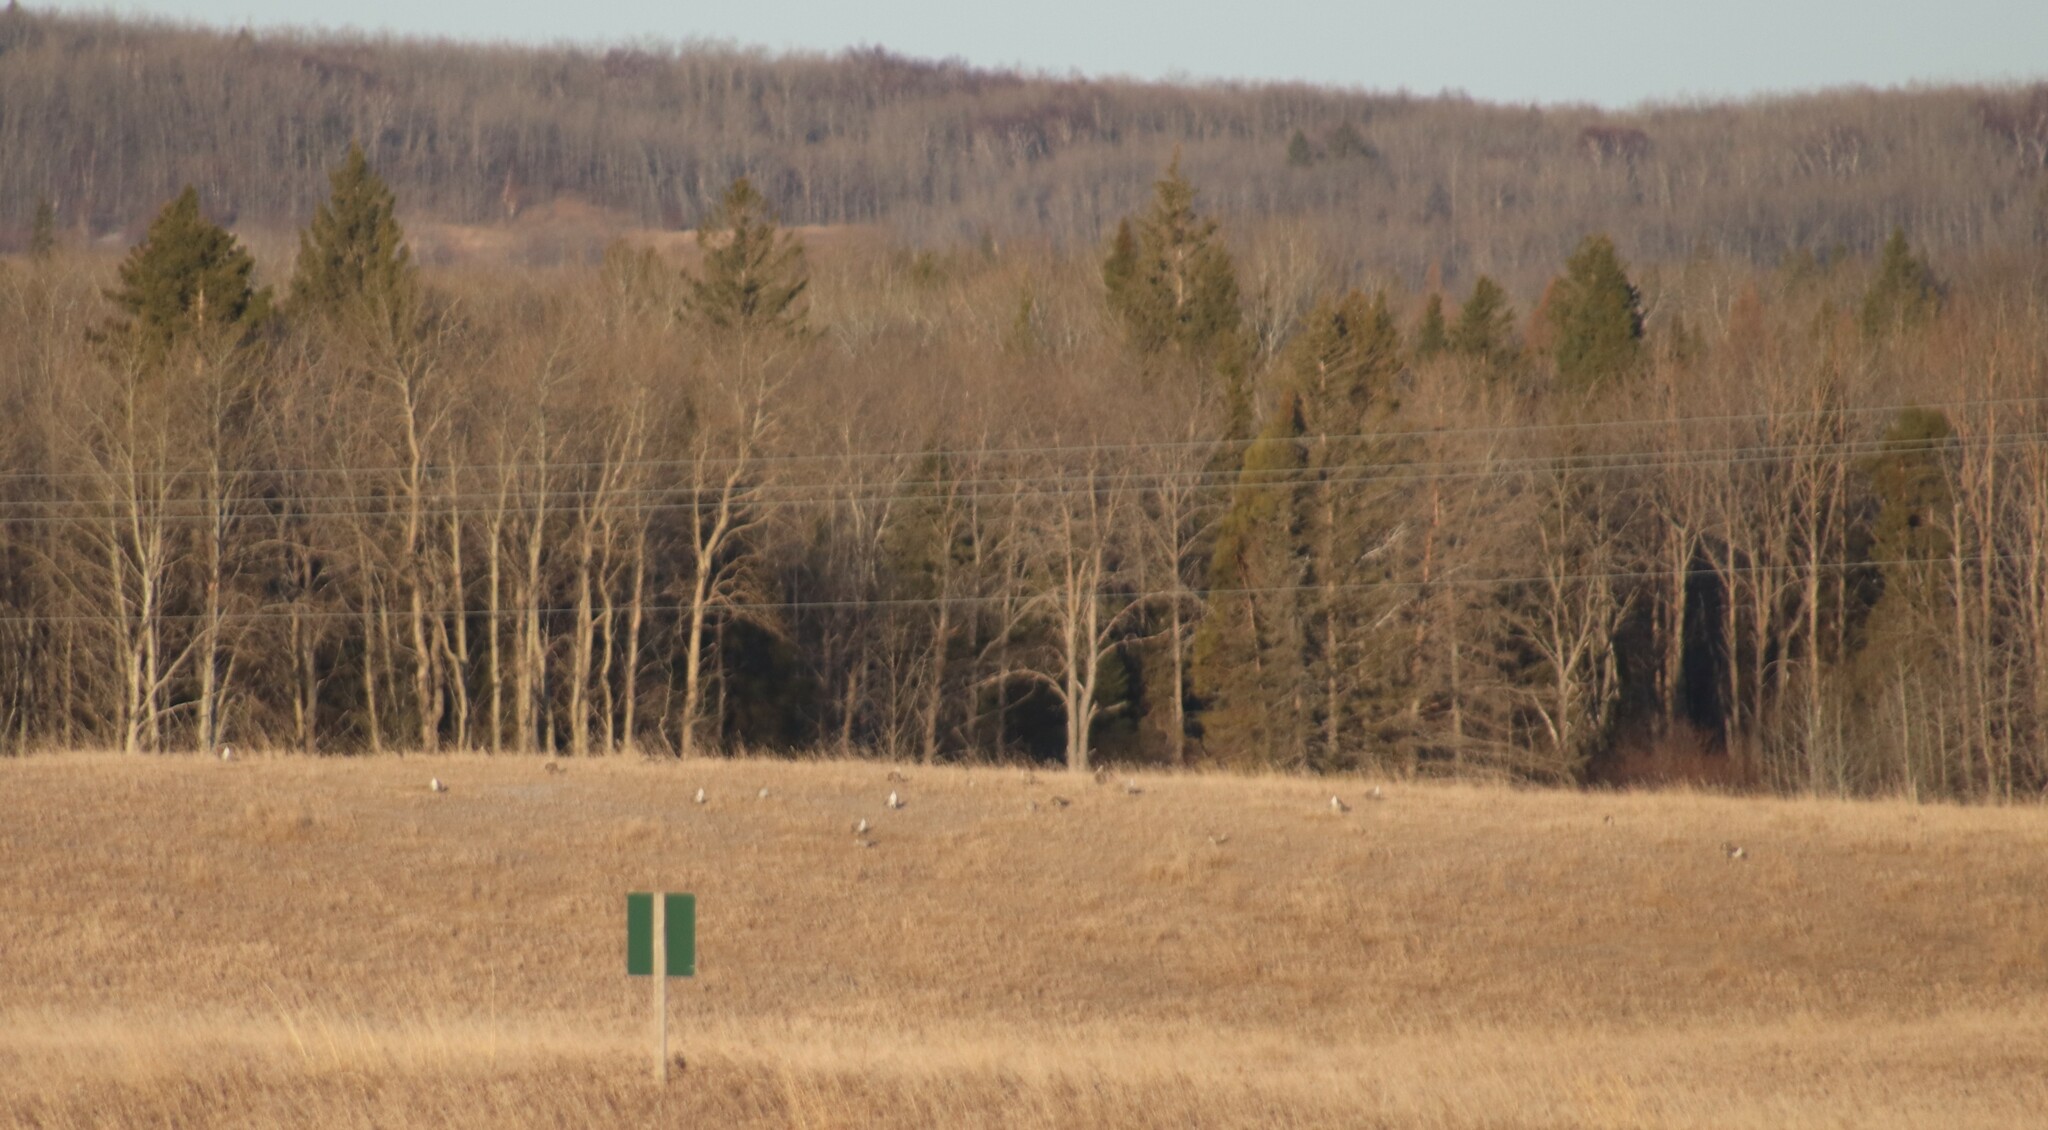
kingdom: Animalia
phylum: Chordata
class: Aves
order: Galliformes
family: Phasianidae
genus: Tympanuchus
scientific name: Tympanuchus phasianellus
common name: Sharp-tailed grouse
